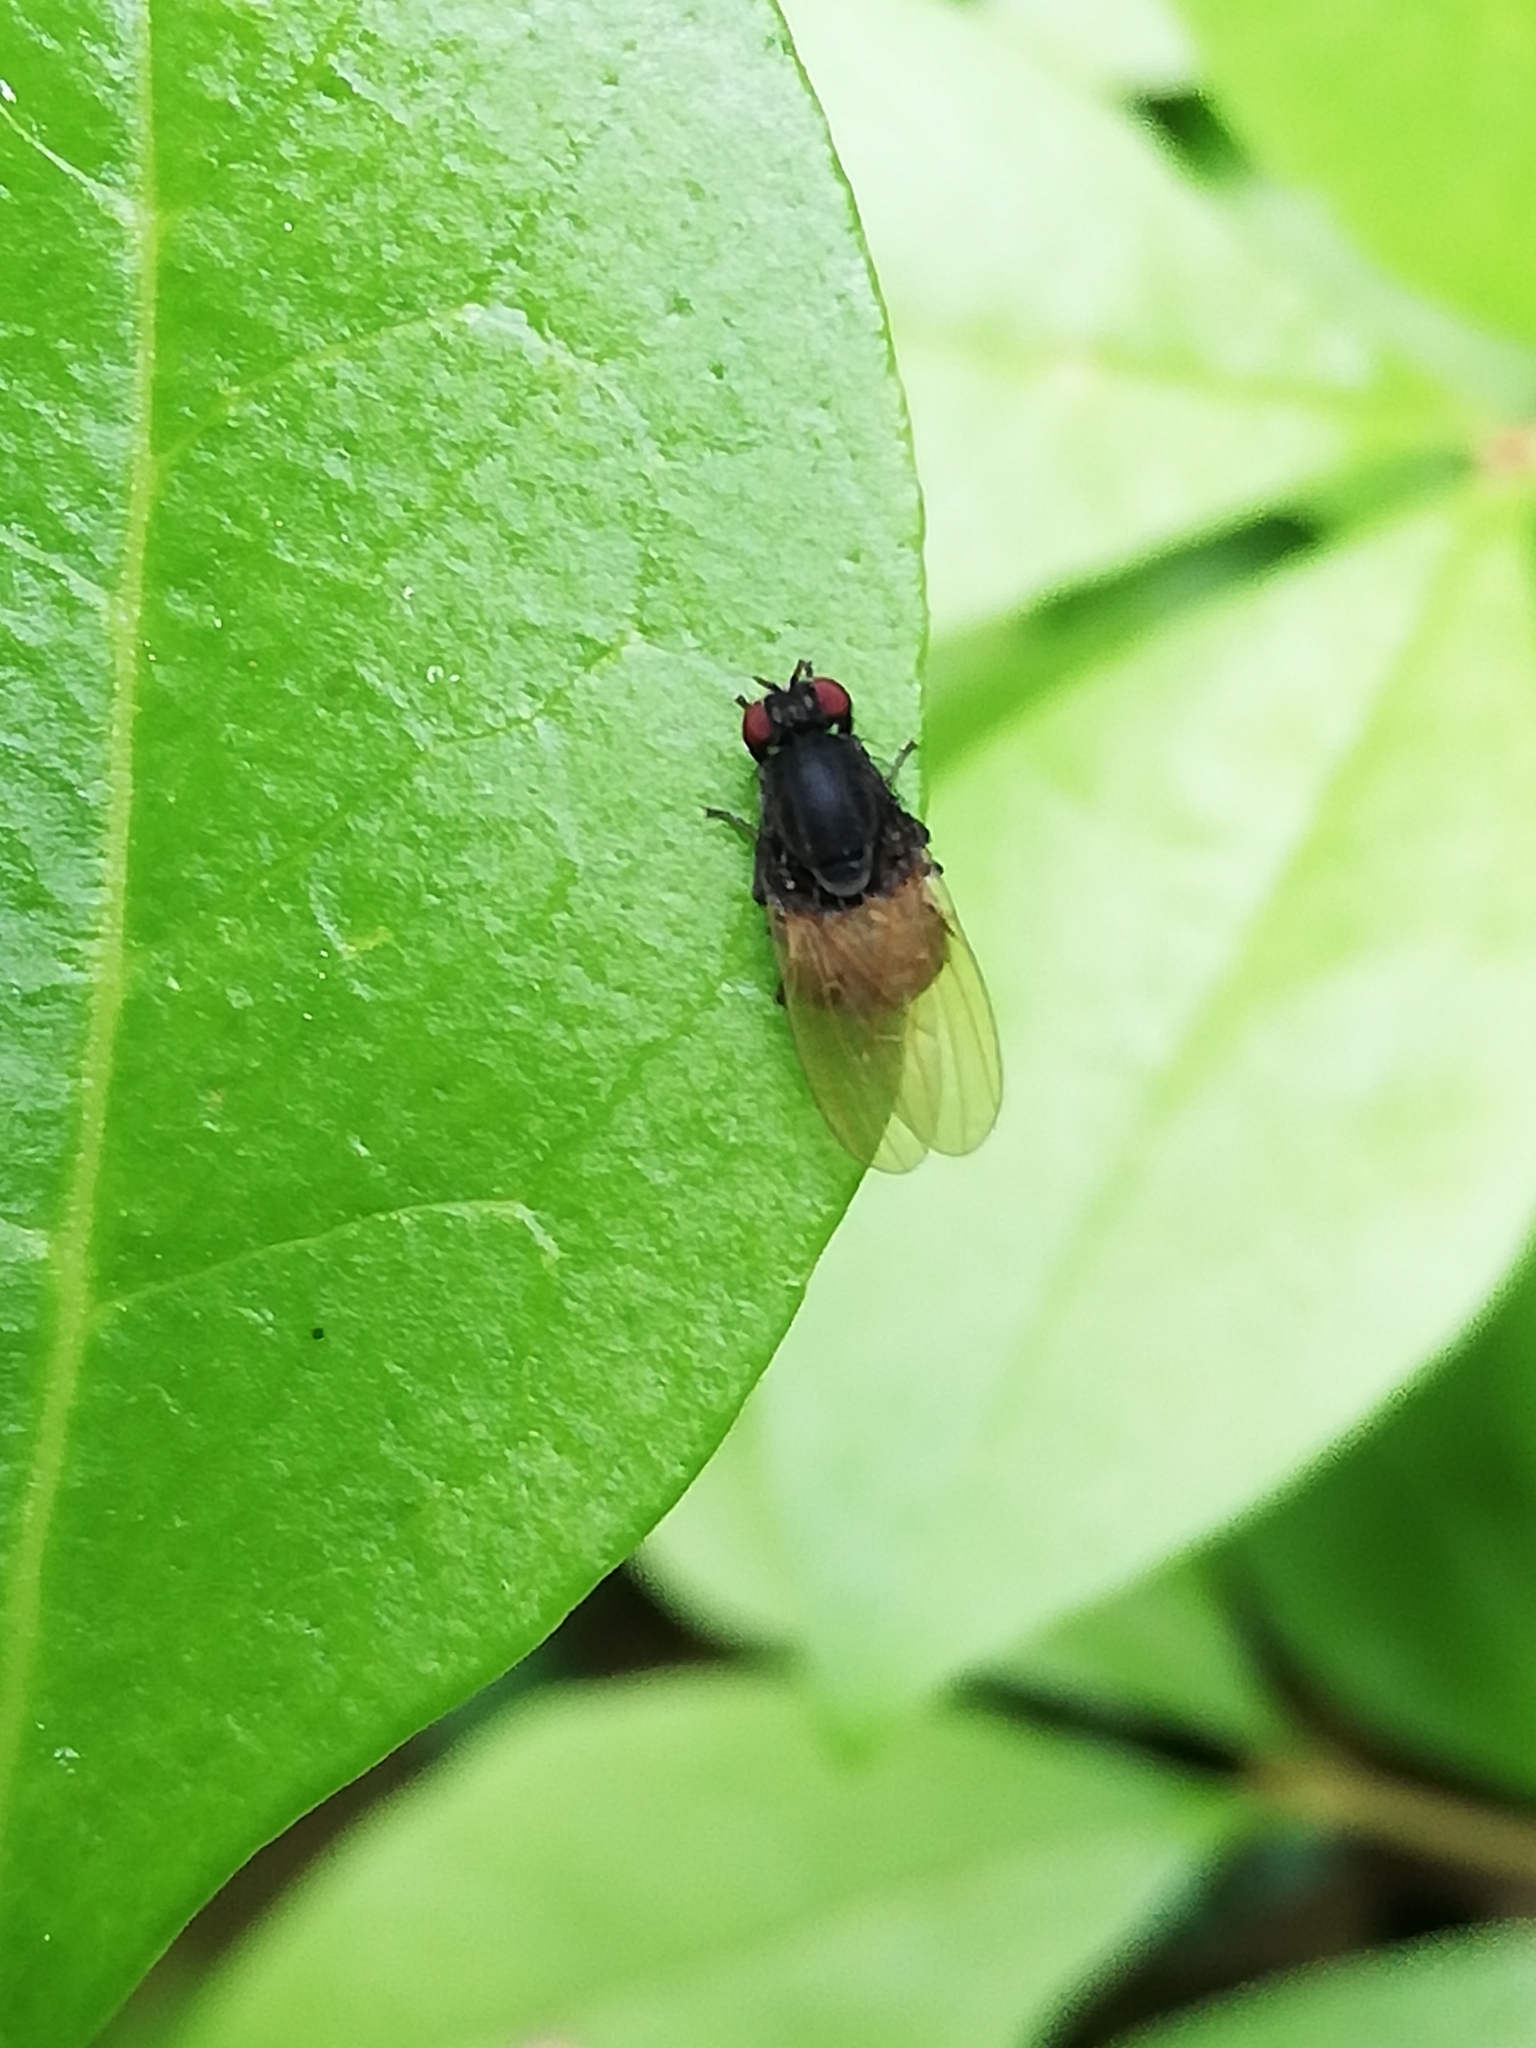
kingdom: Animalia
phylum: Arthropoda
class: Insecta
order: Diptera
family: Lauxaniidae
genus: Minettia
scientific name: Minettia longipennis
